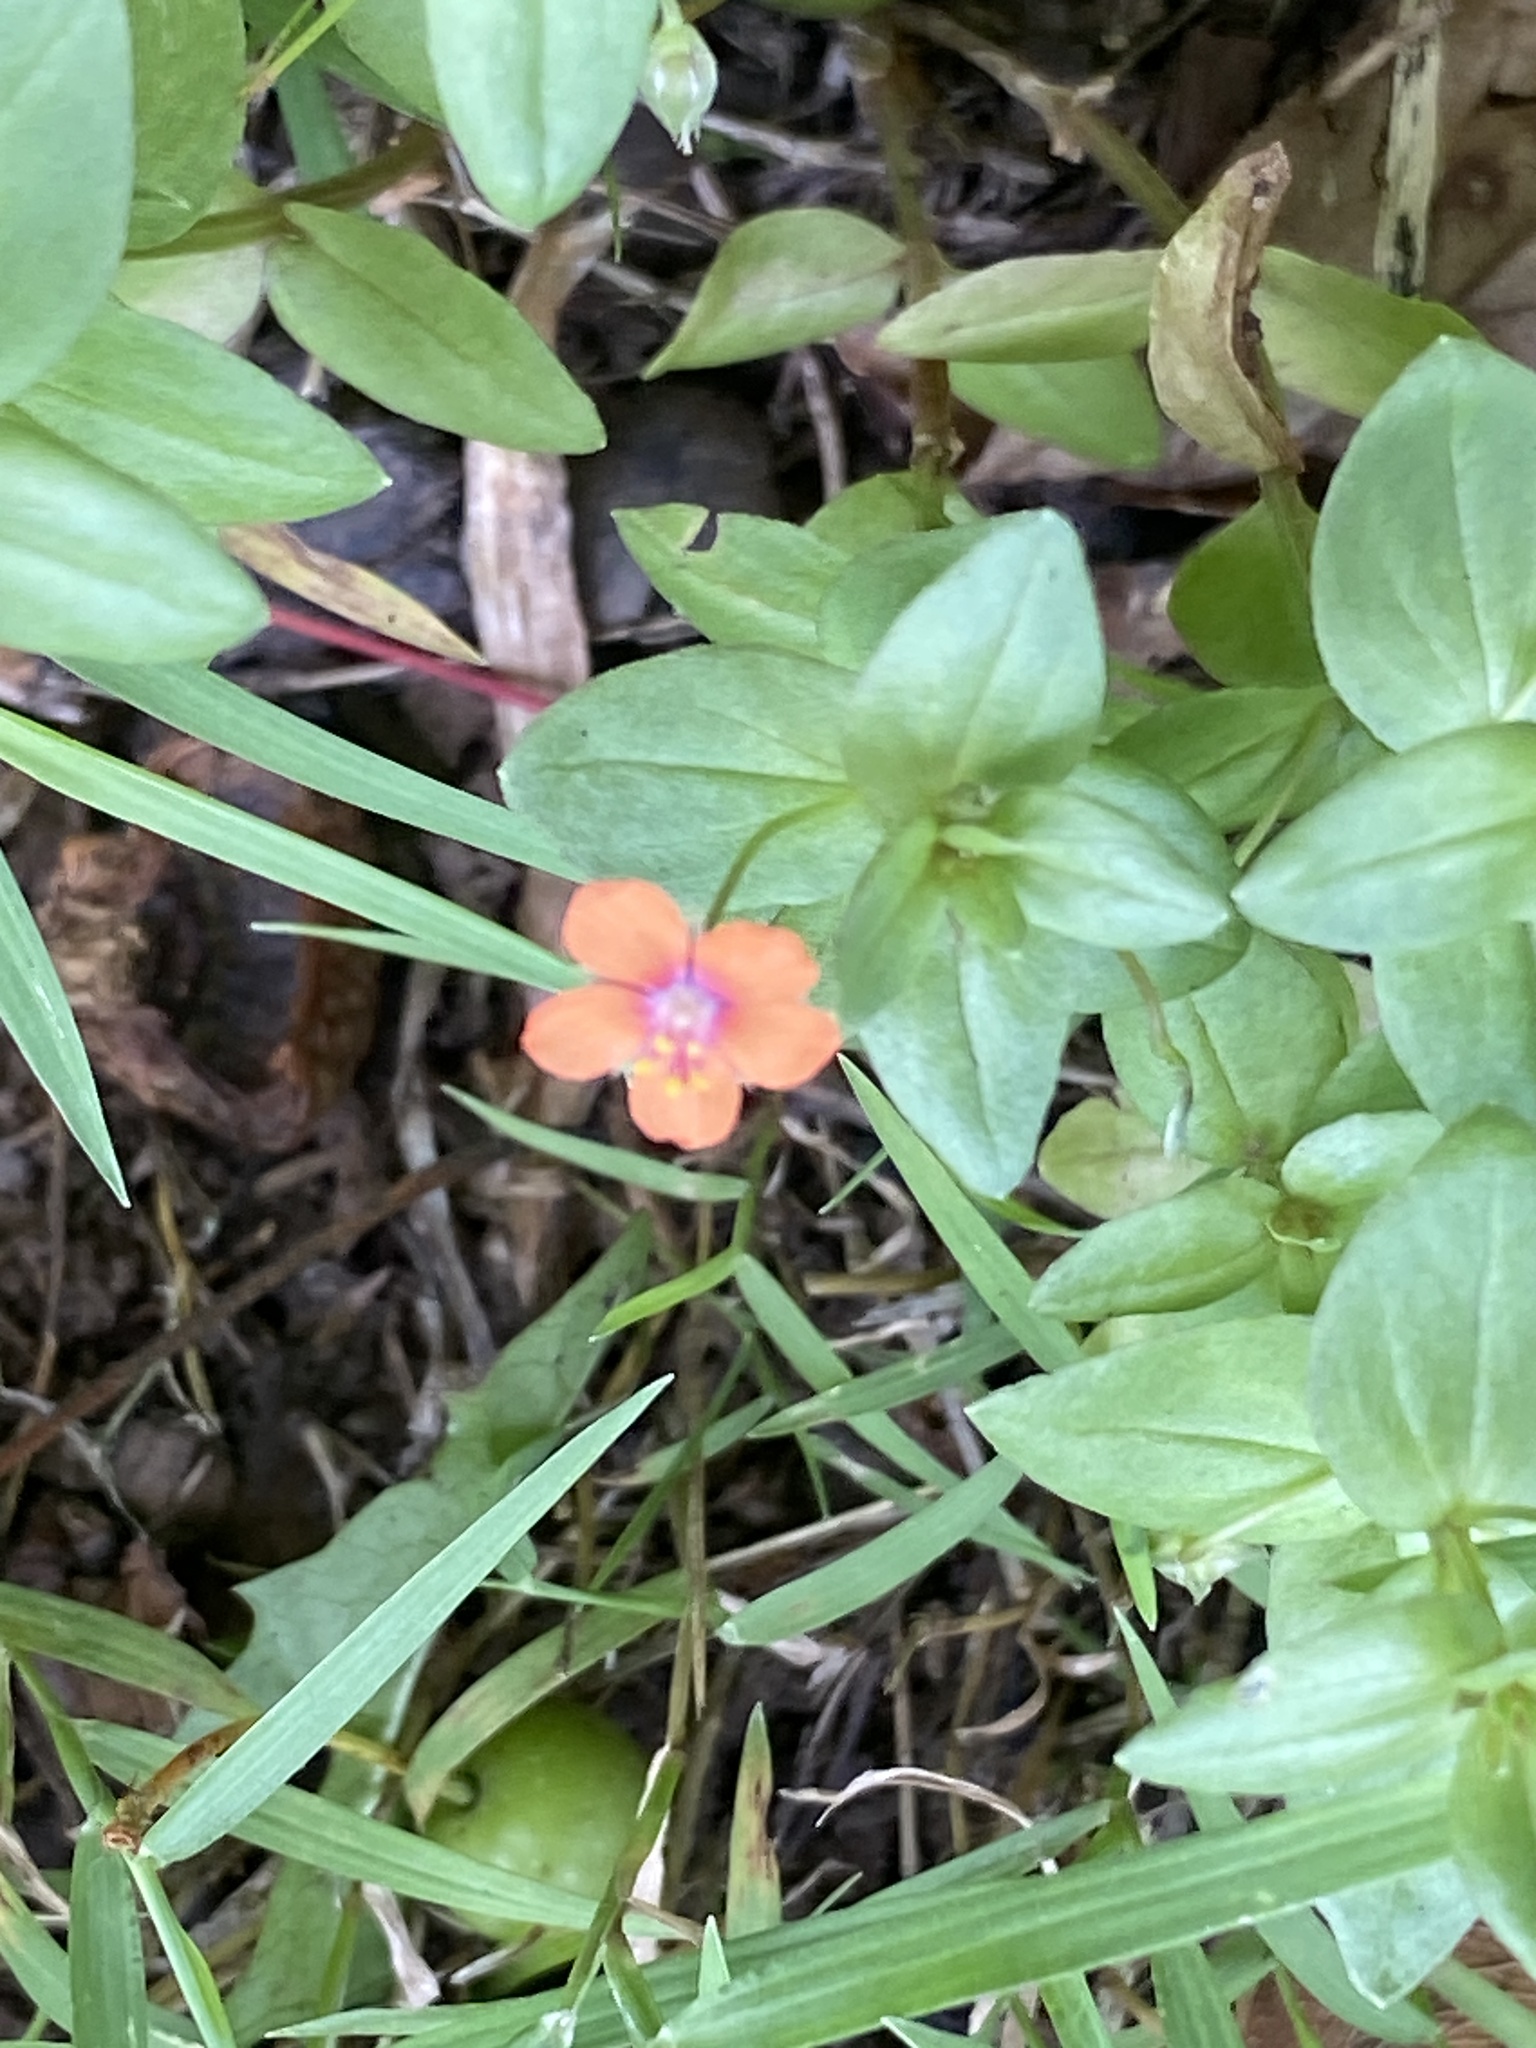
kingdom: Plantae
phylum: Tracheophyta
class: Magnoliopsida
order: Ericales
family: Primulaceae
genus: Lysimachia
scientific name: Lysimachia arvensis
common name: Scarlet pimpernel
